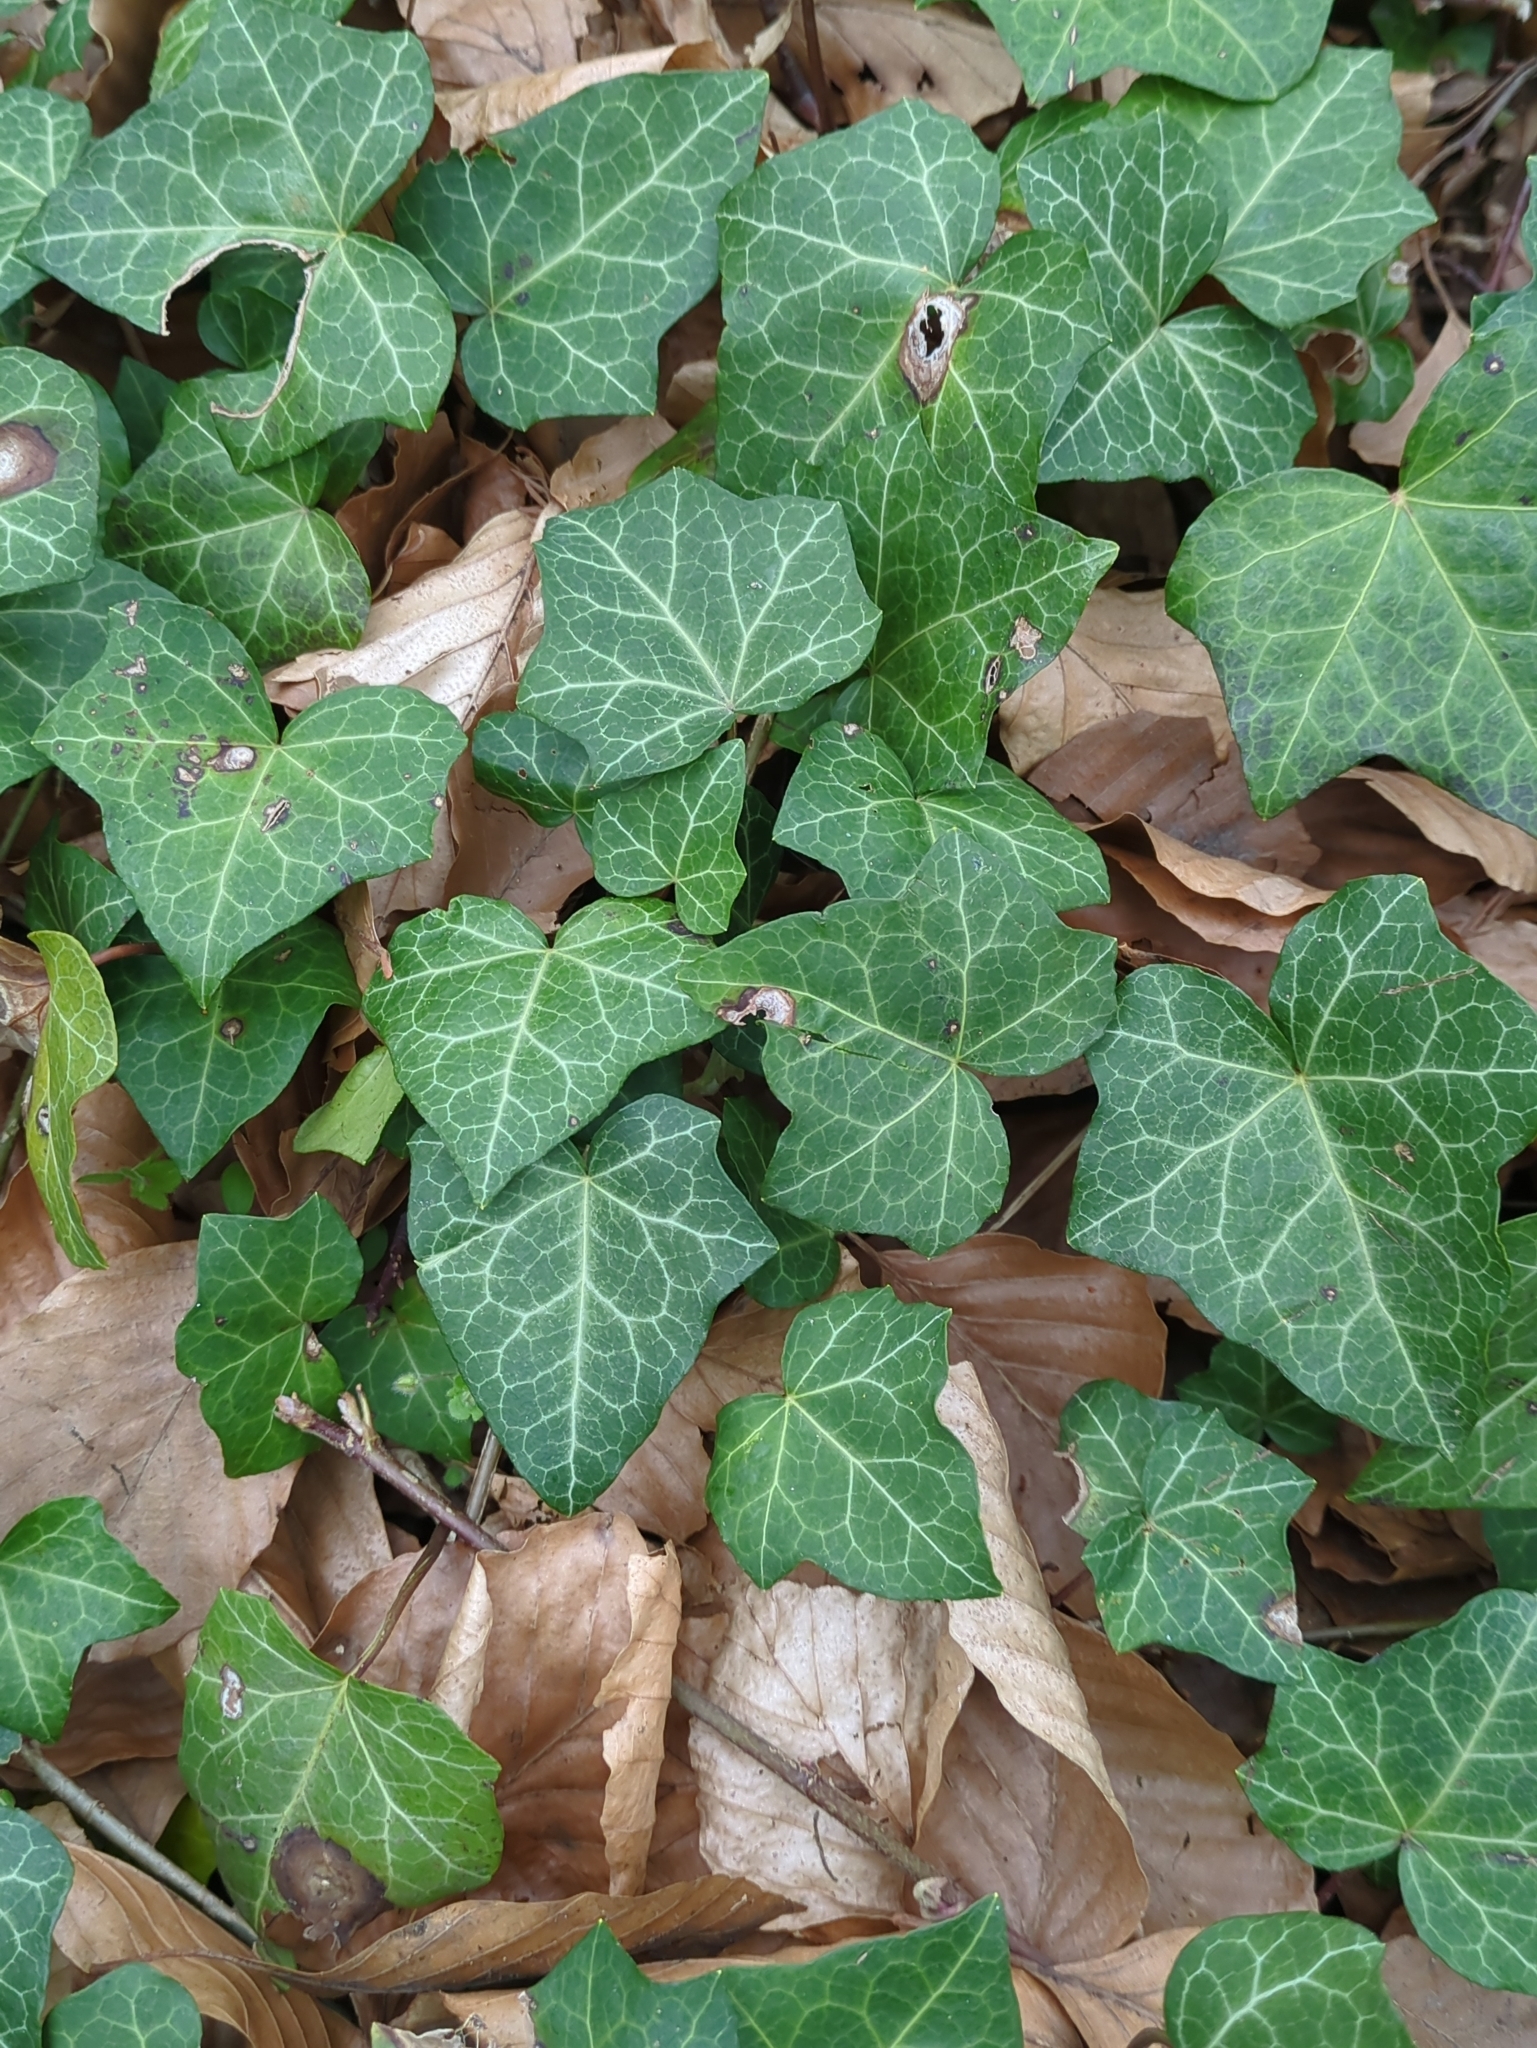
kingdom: Plantae
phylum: Tracheophyta
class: Magnoliopsida
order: Apiales
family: Araliaceae
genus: Hedera
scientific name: Hedera helix
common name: Ivy
